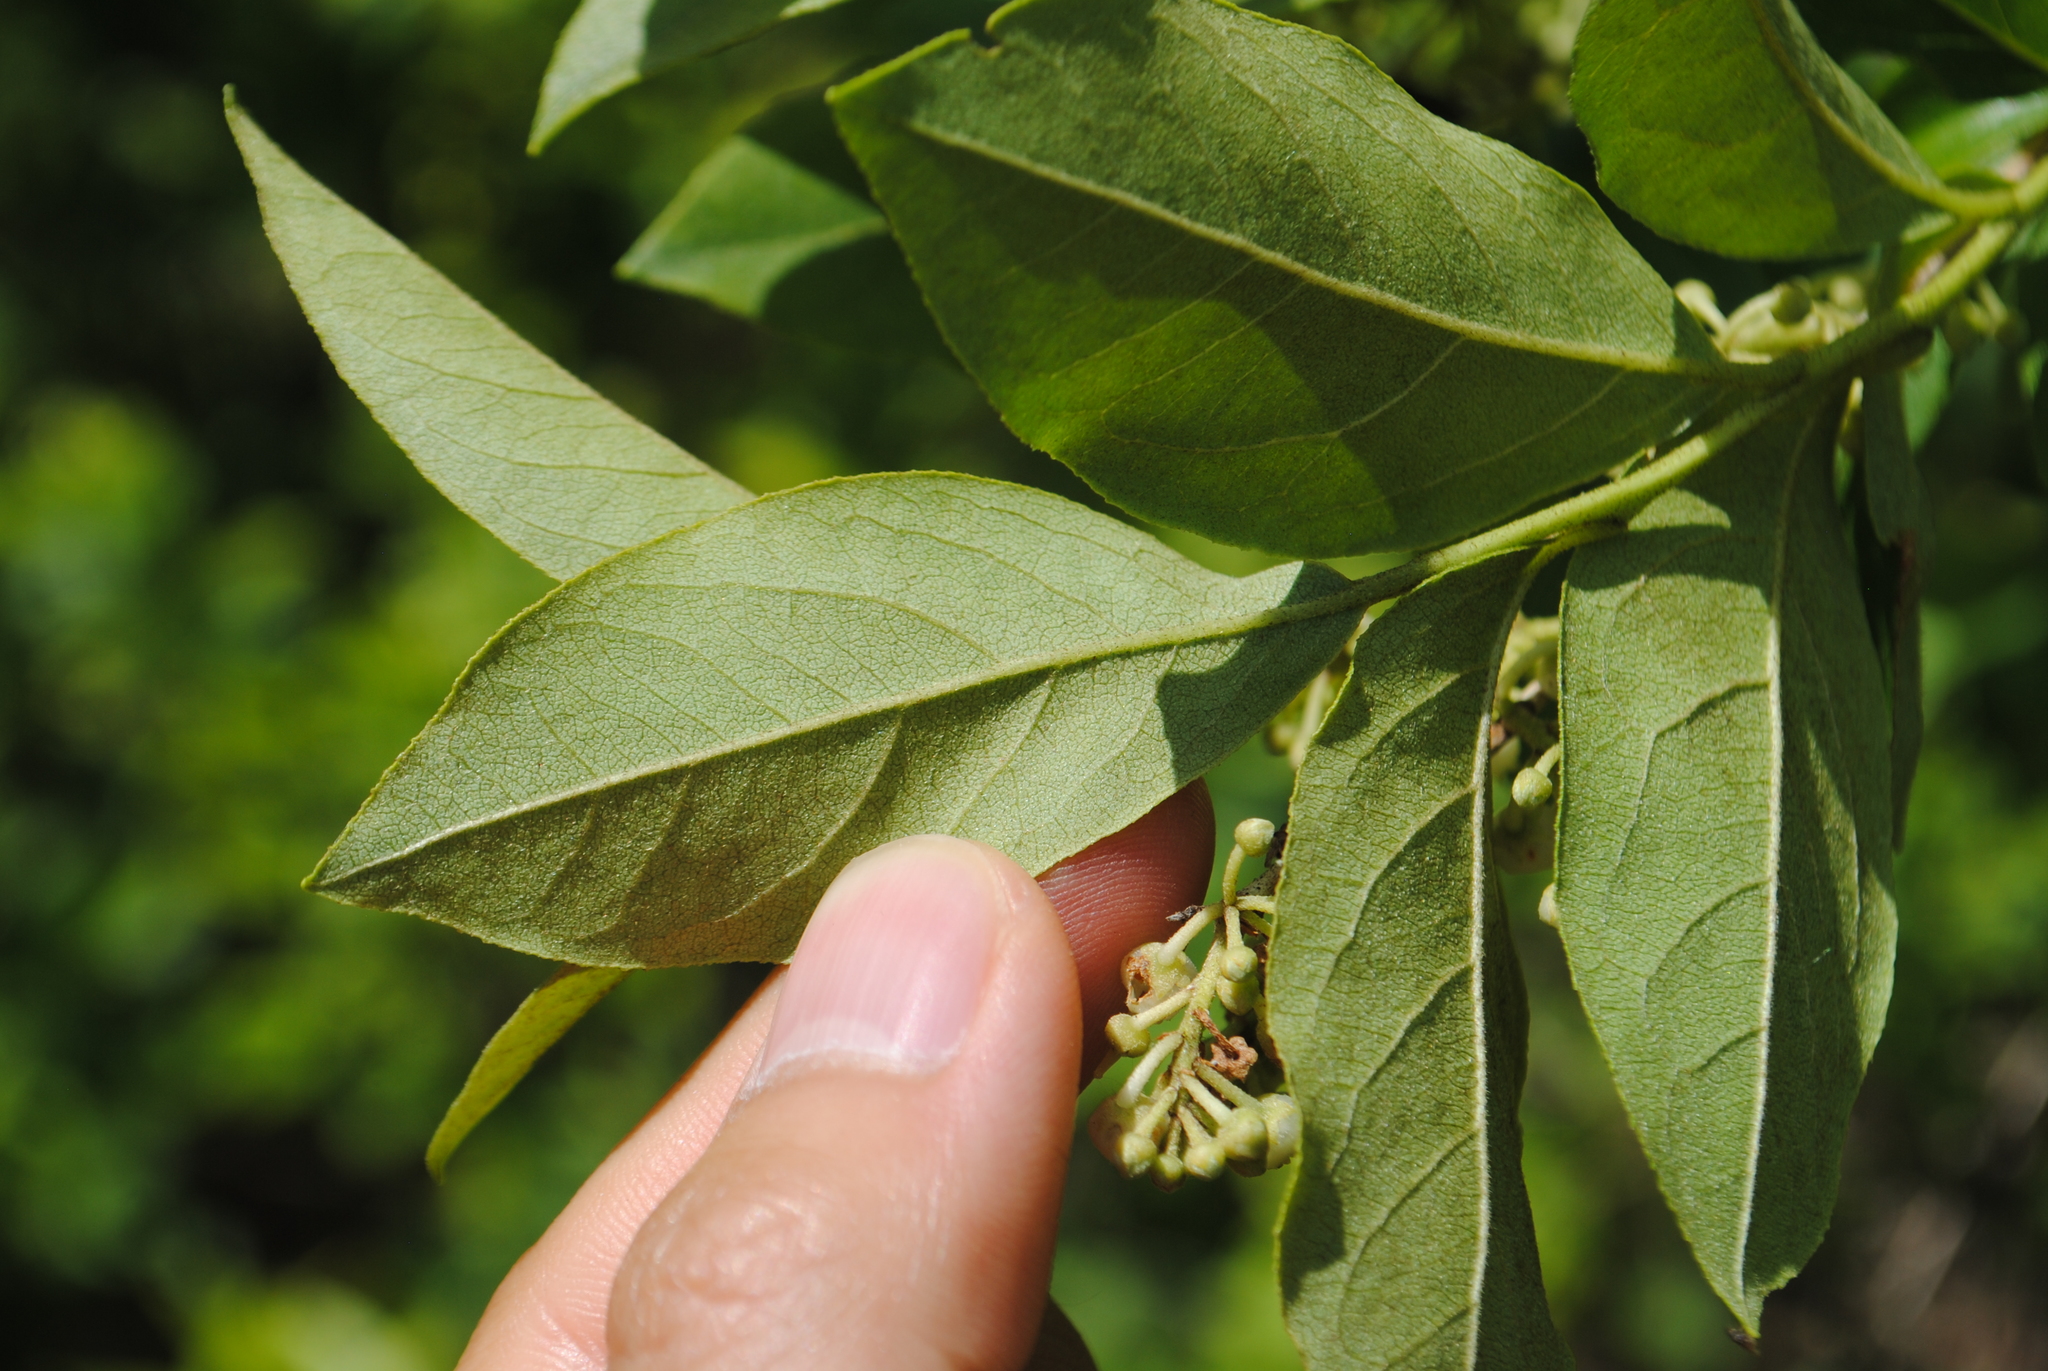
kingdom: Plantae
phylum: Tracheophyta
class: Magnoliopsida
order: Ericales
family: Ericaceae
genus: Lyonia
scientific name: Lyonia ligustrina
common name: Maleberry
